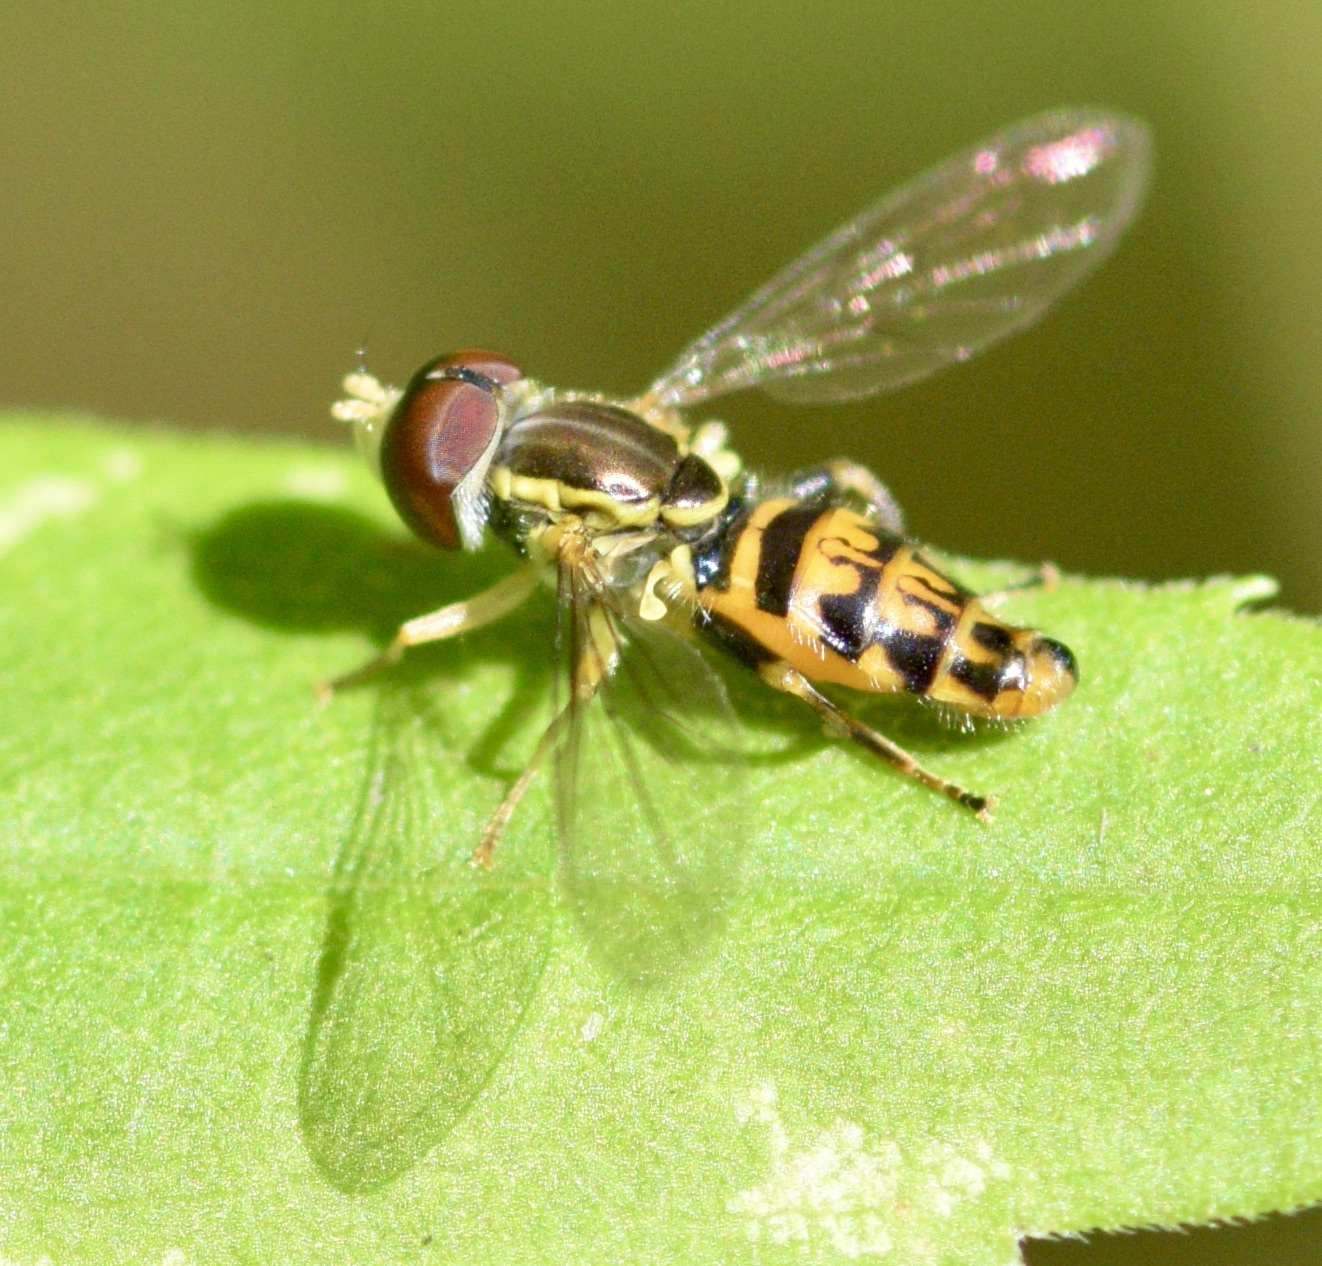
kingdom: Animalia
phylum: Arthropoda
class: Insecta
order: Diptera
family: Syrphidae
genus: Toxomerus
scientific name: Toxomerus geminatus
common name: Eastern calligrapher
